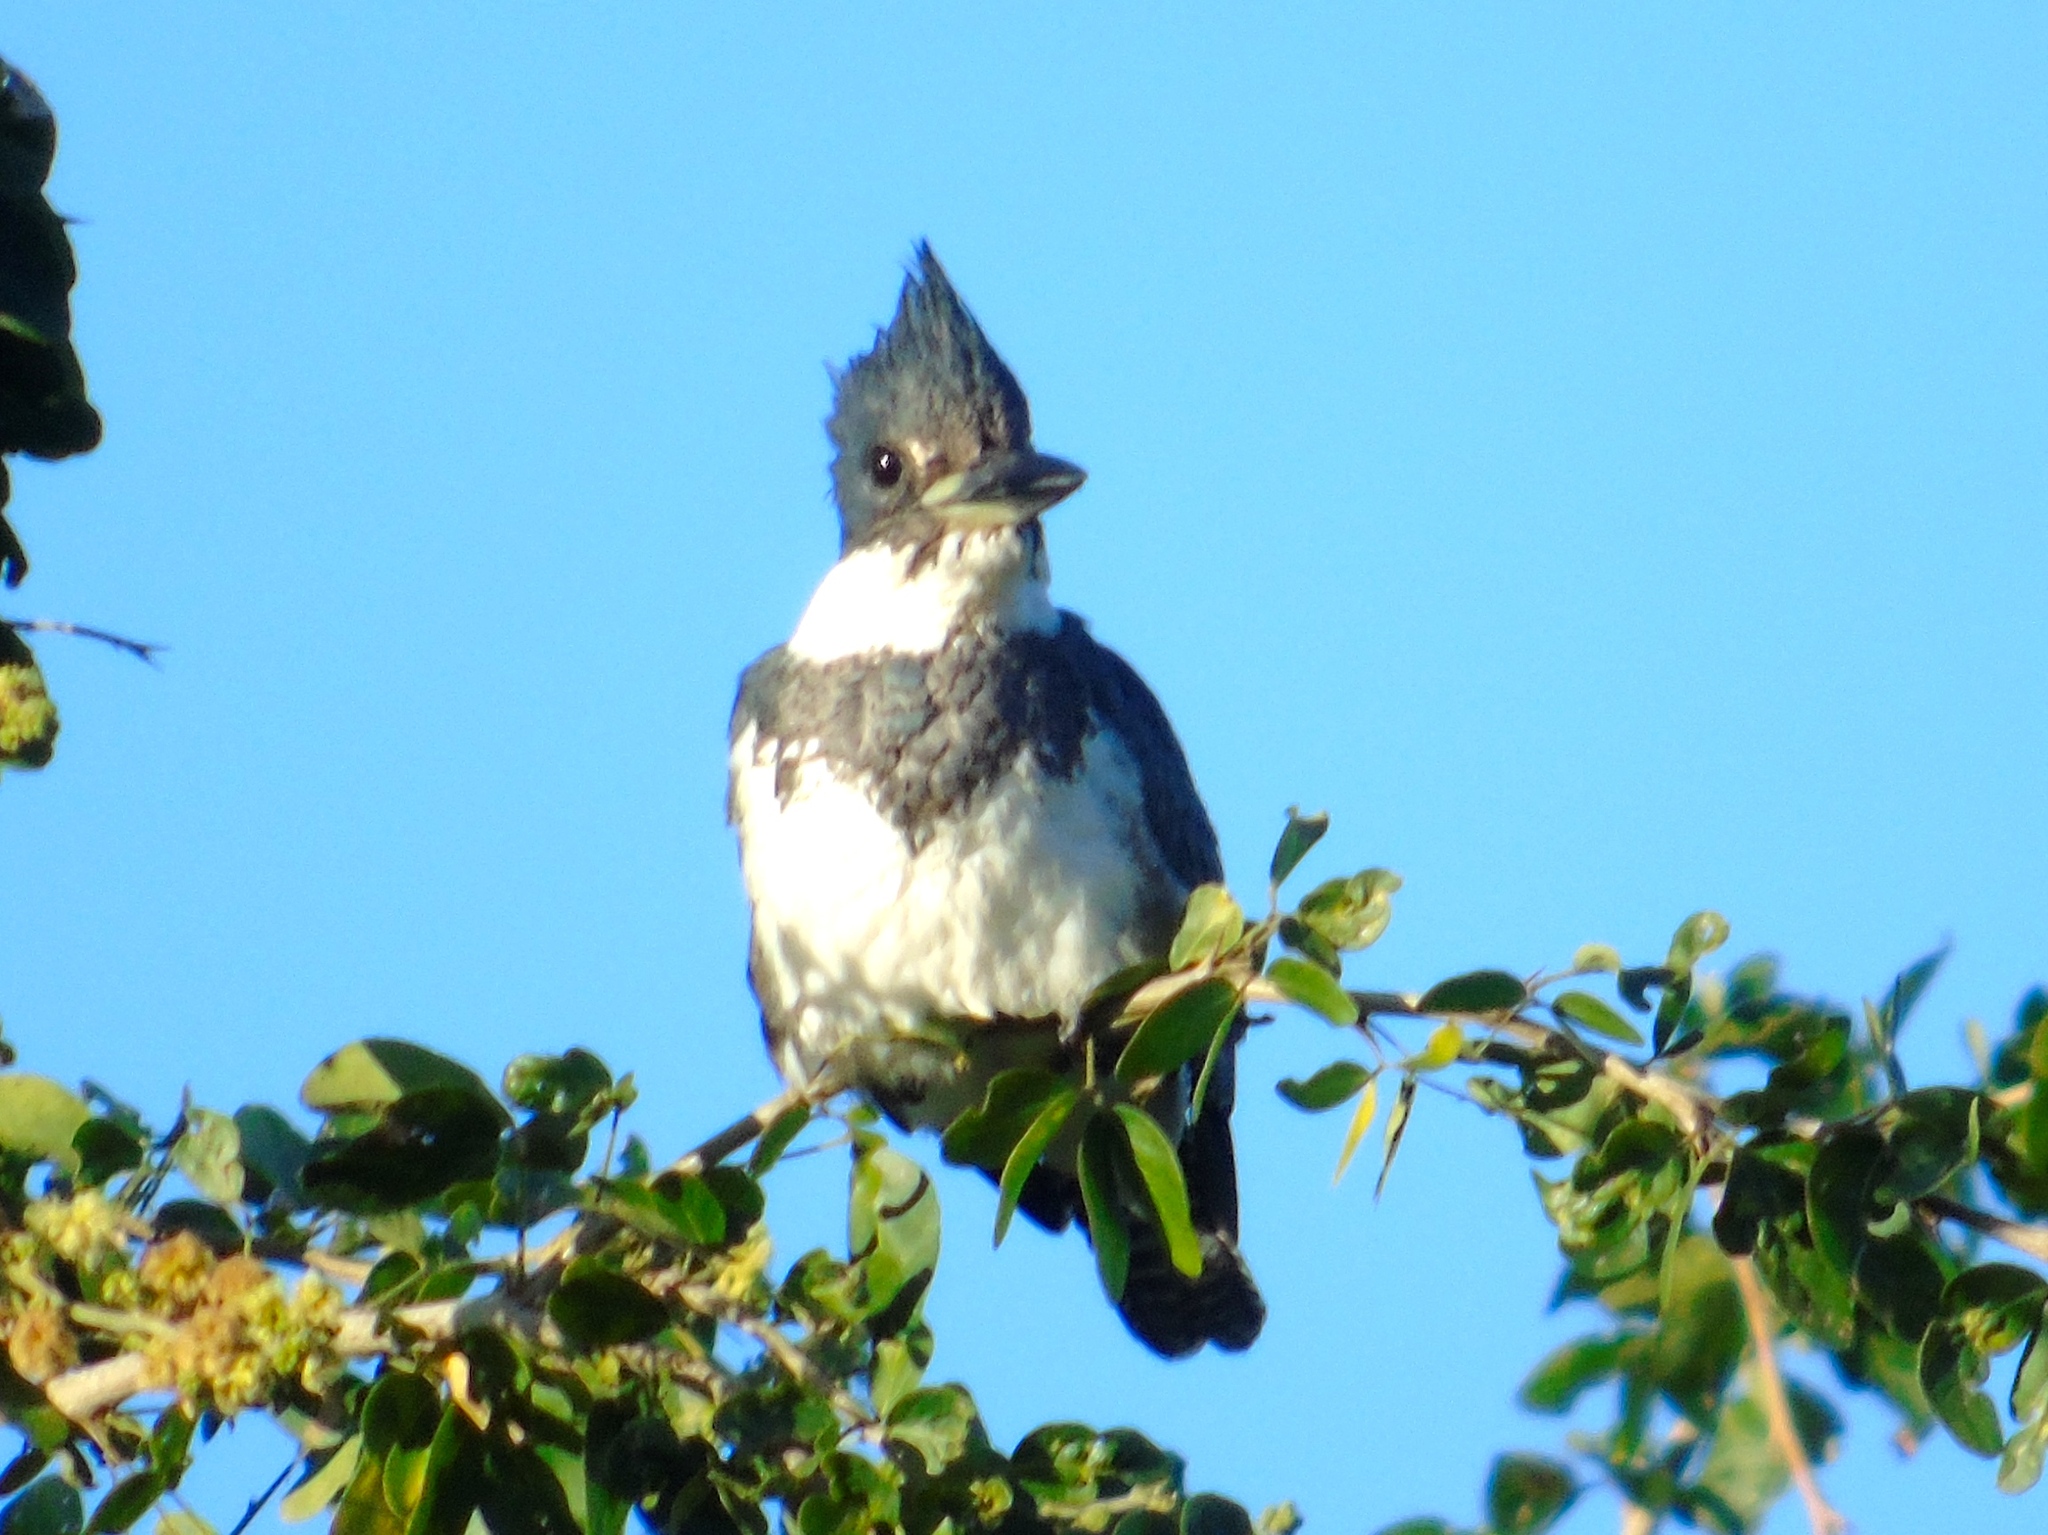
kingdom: Animalia
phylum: Chordata
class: Aves
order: Coraciiformes
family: Alcedinidae
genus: Megaceryle
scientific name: Megaceryle alcyon
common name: Belted kingfisher
